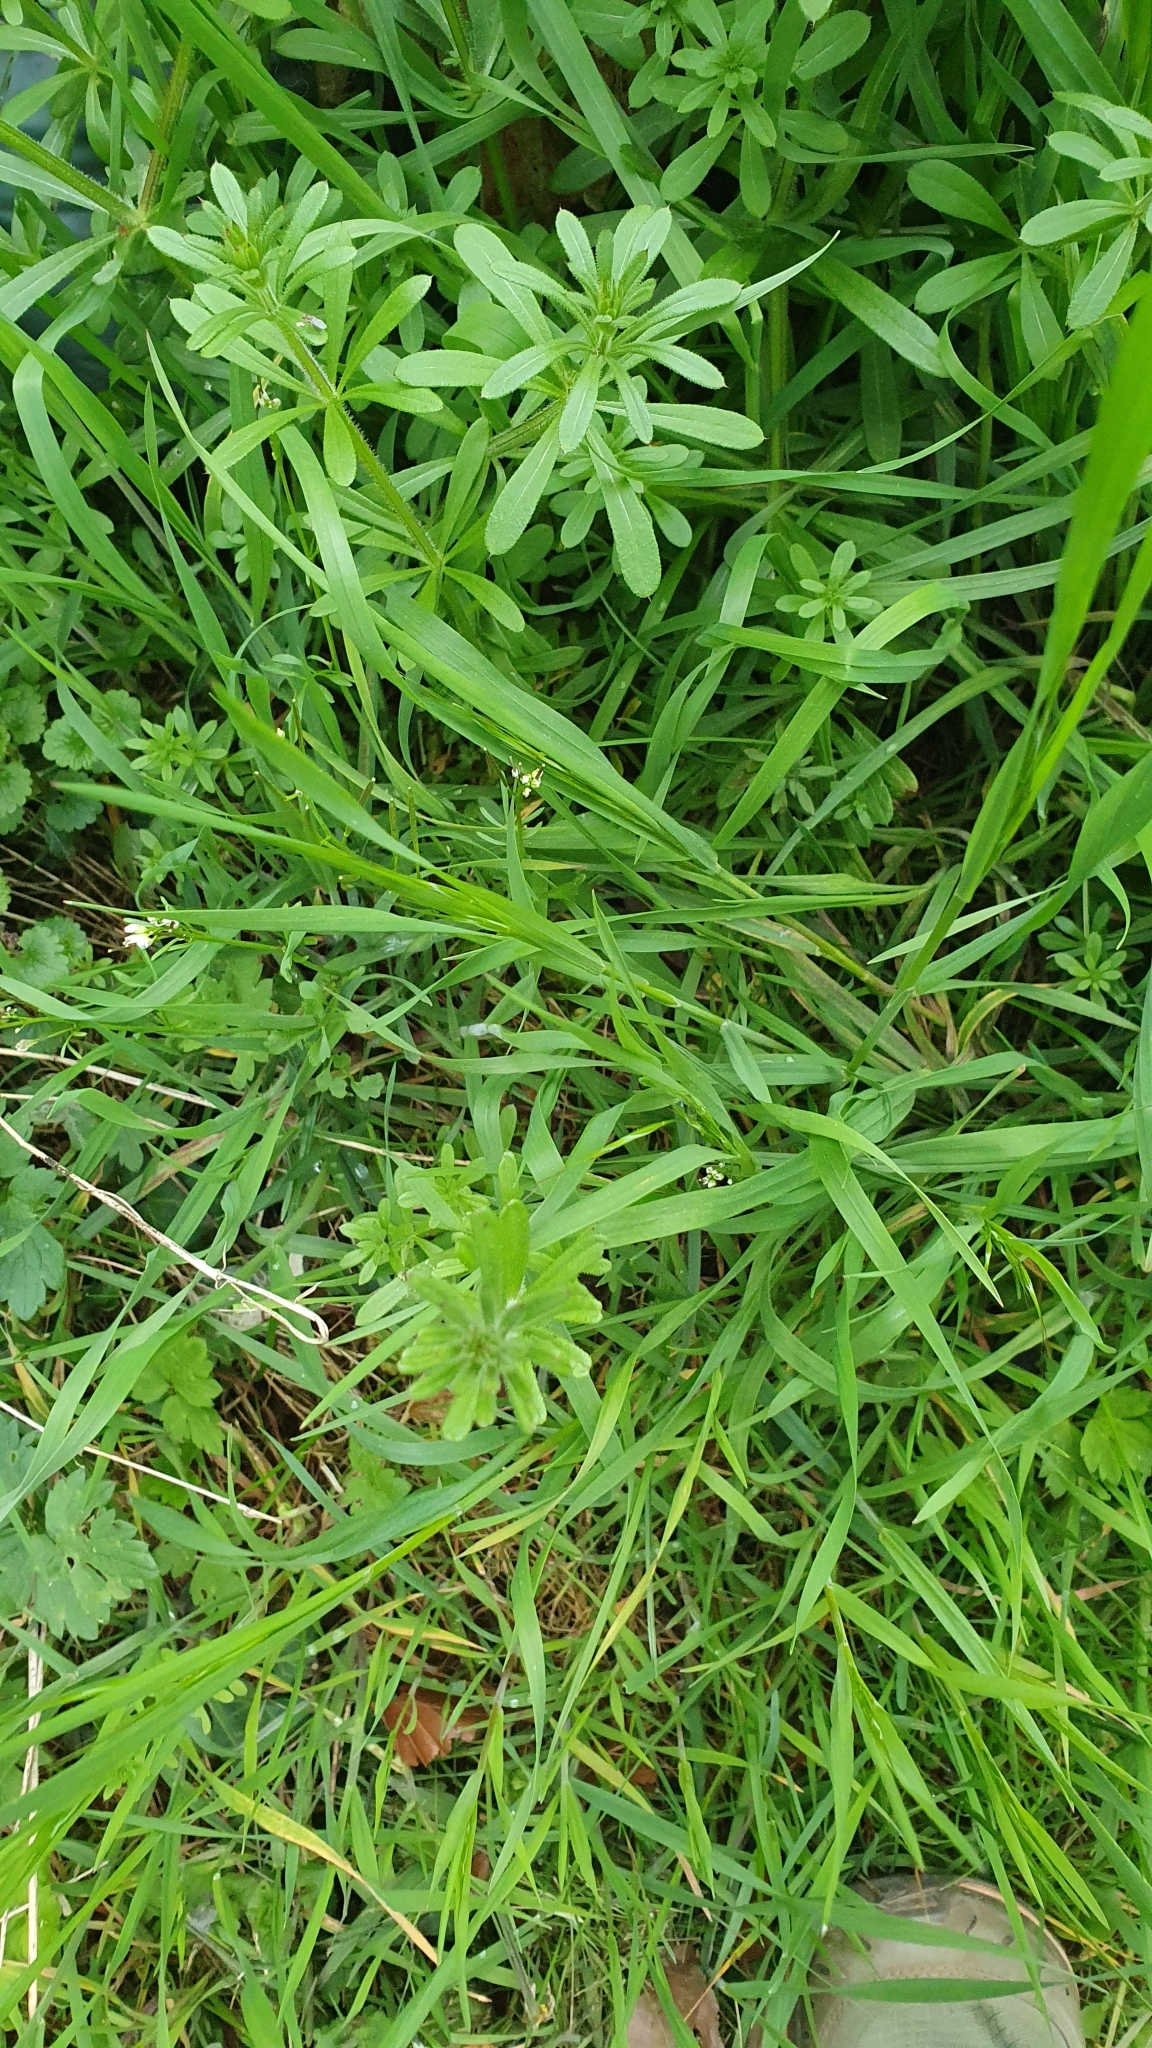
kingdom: Plantae
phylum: Tracheophyta
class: Magnoliopsida
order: Gentianales
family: Rubiaceae
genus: Galium
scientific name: Galium aparine
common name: Cleavers
